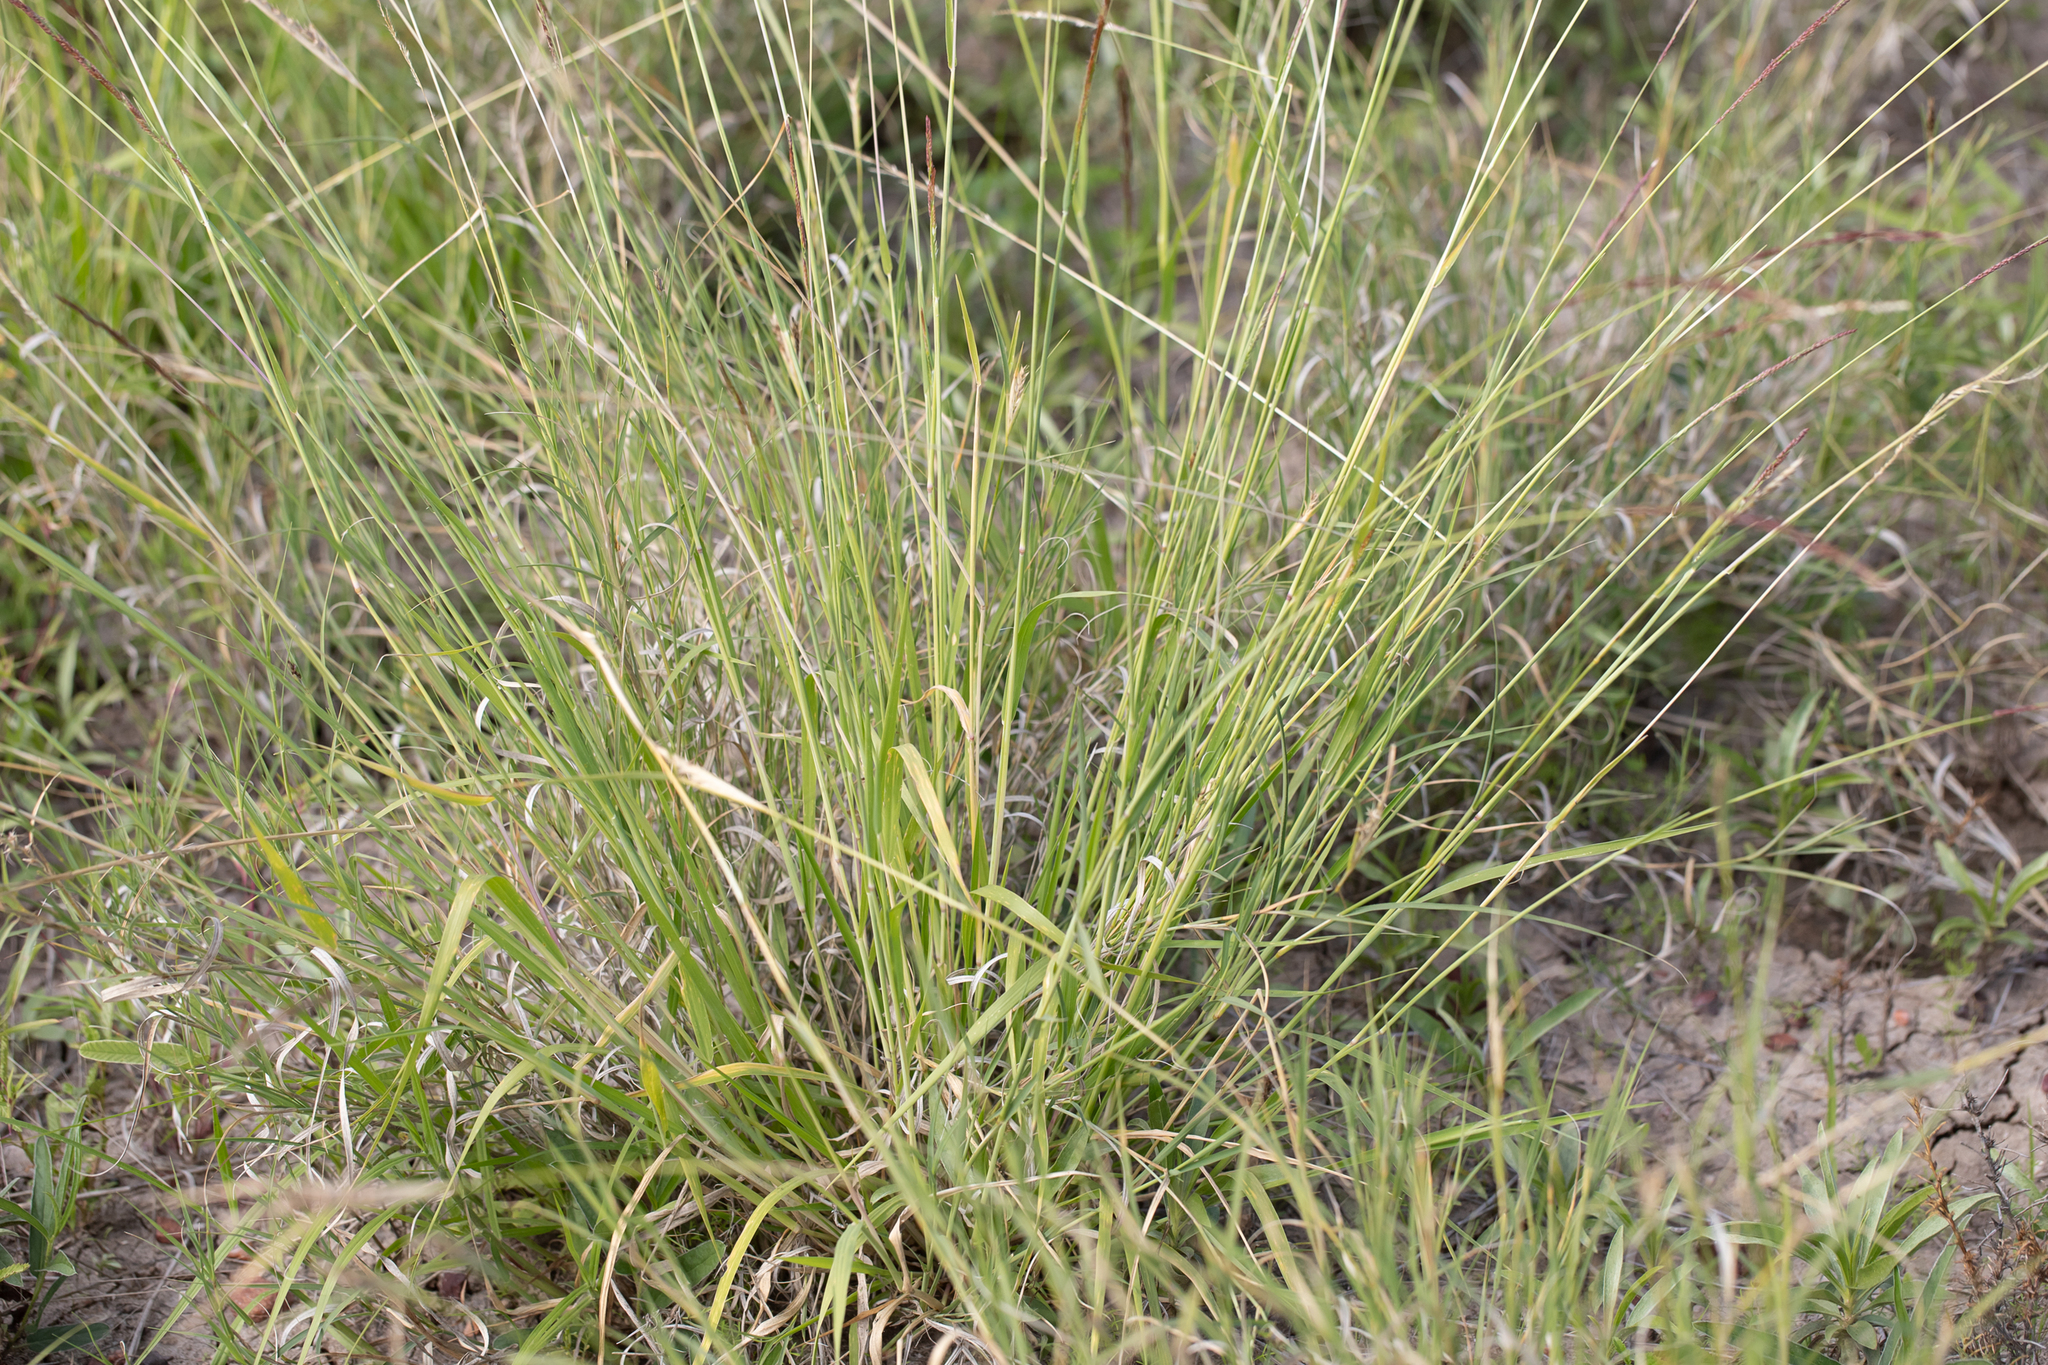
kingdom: Plantae
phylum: Tracheophyta
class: Liliopsida
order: Poales
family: Poaceae
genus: Eriochloa
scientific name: Eriochloa pseudoacrotricha
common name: Perennial cup-grass
